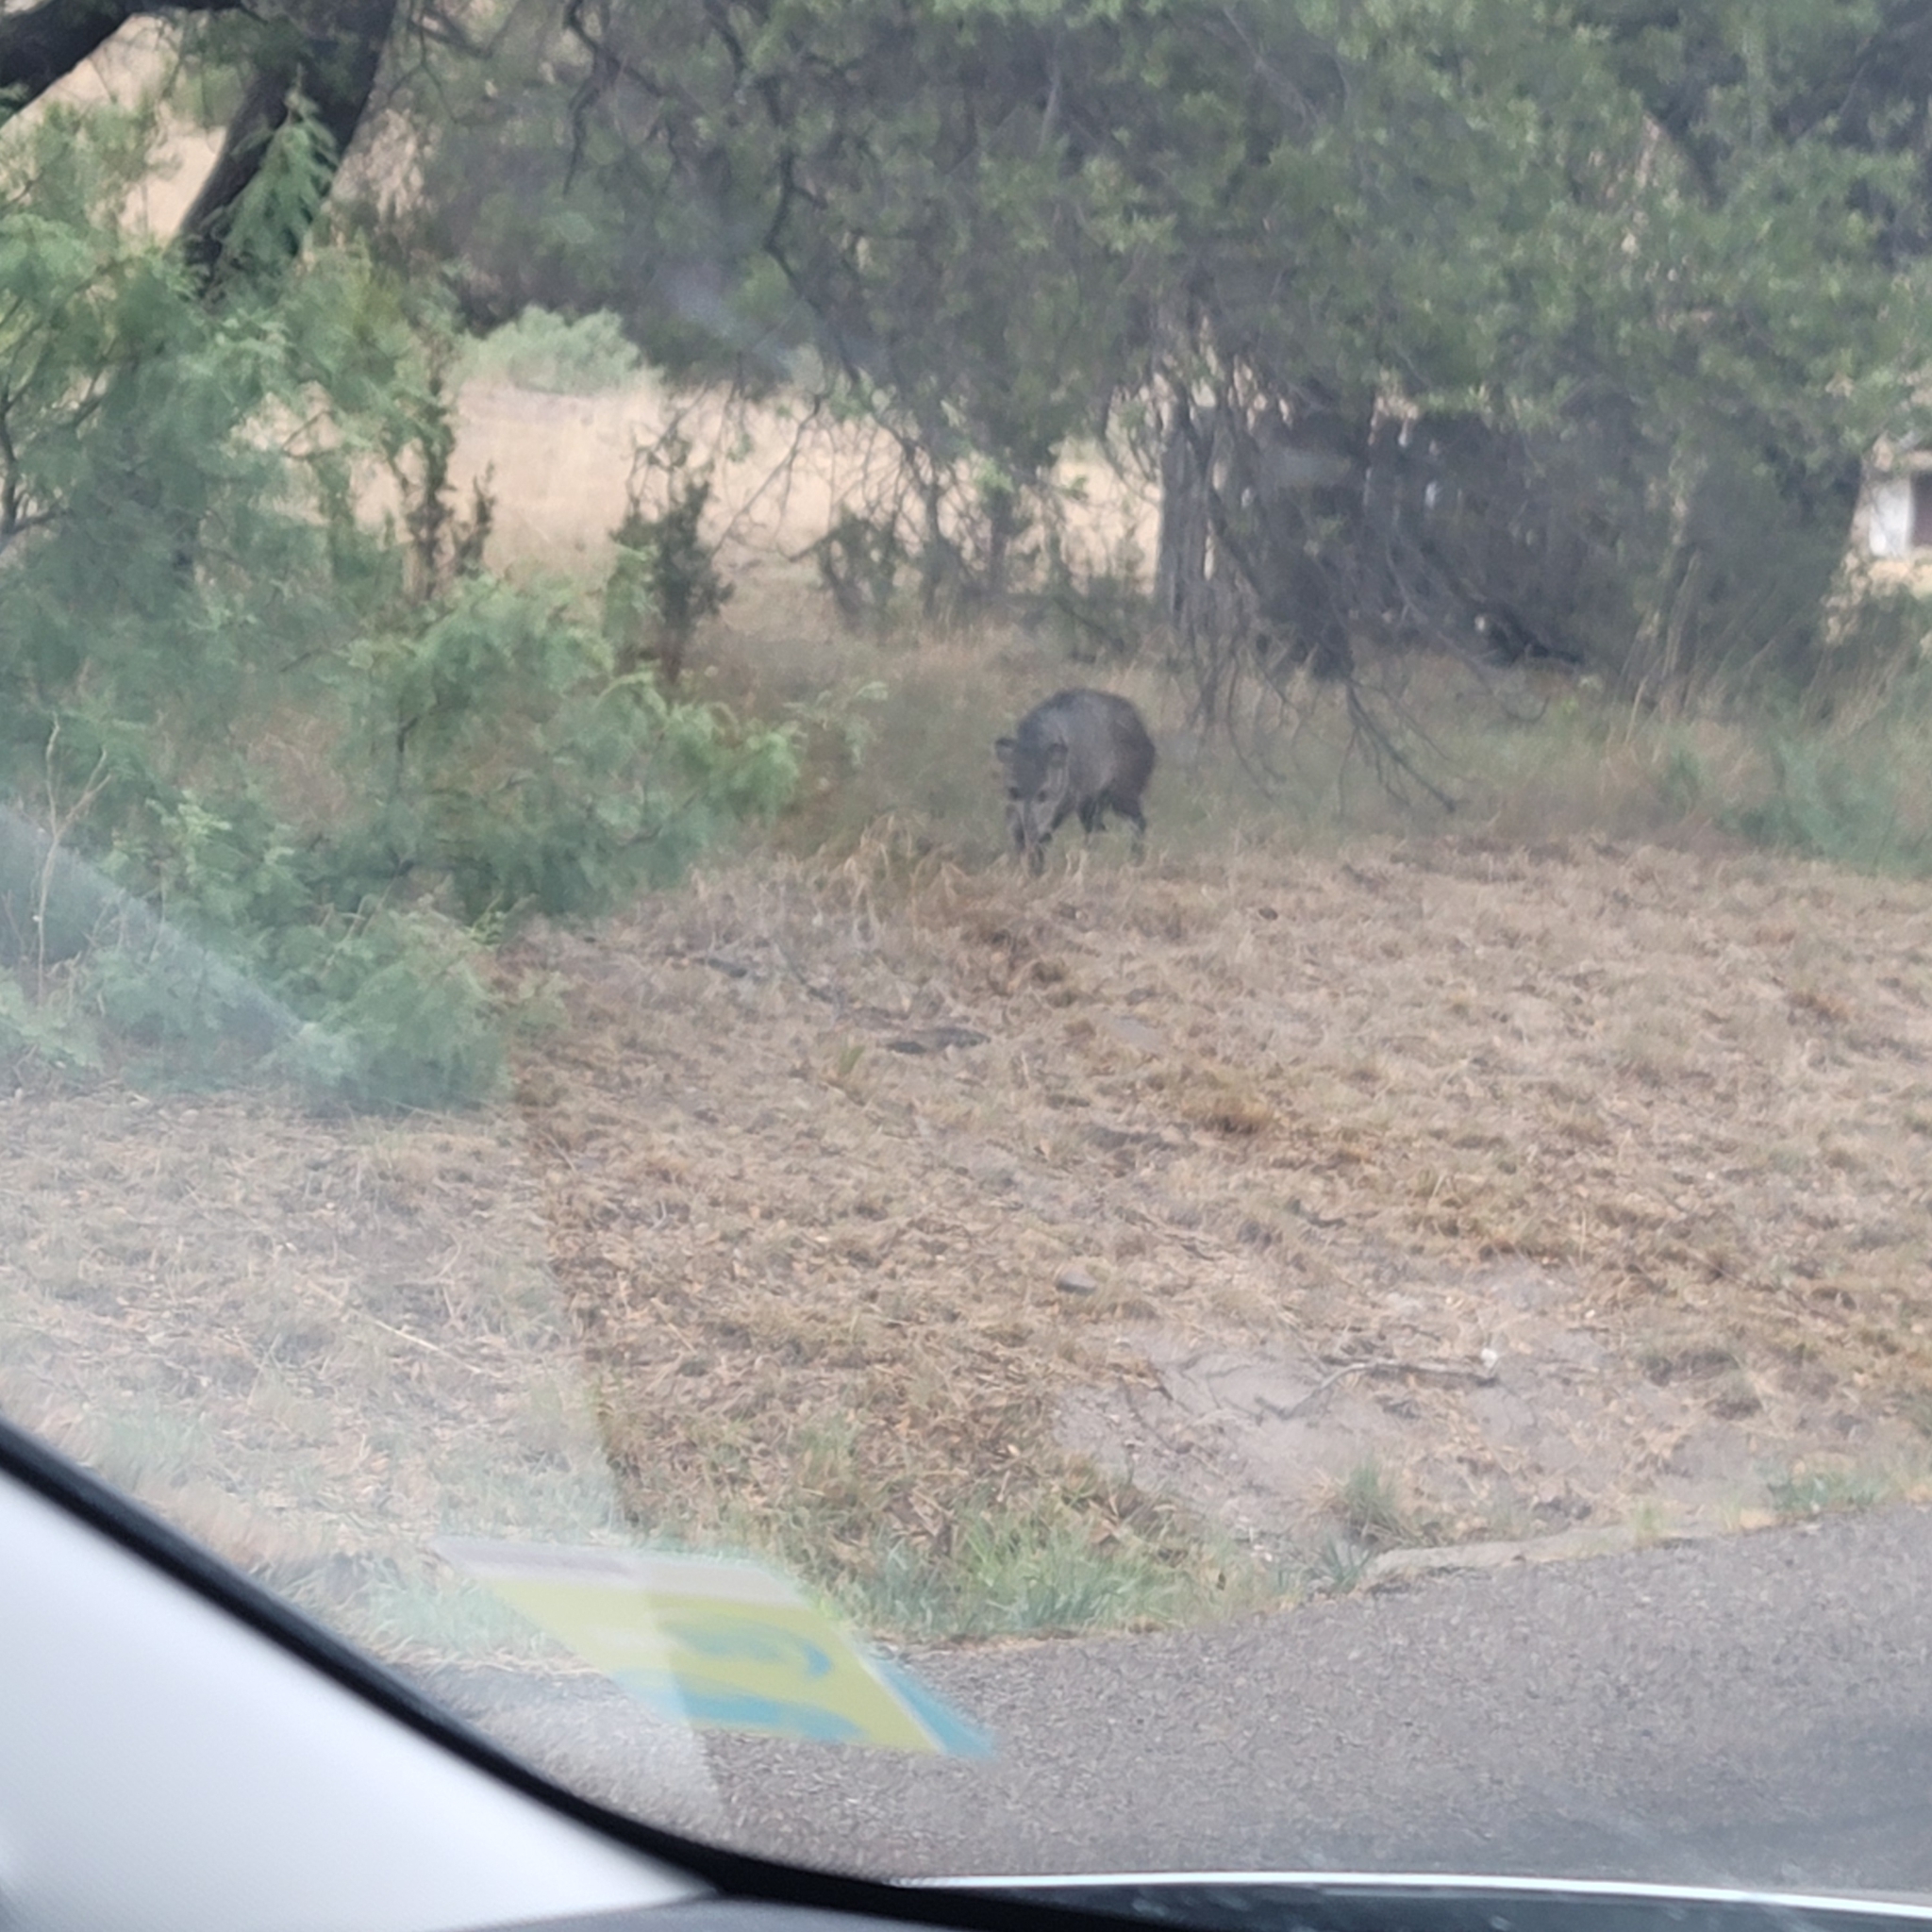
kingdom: Animalia
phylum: Chordata
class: Mammalia
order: Artiodactyla
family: Tayassuidae
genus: Pecari
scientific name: Pecari tajacu
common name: Collared peccary
